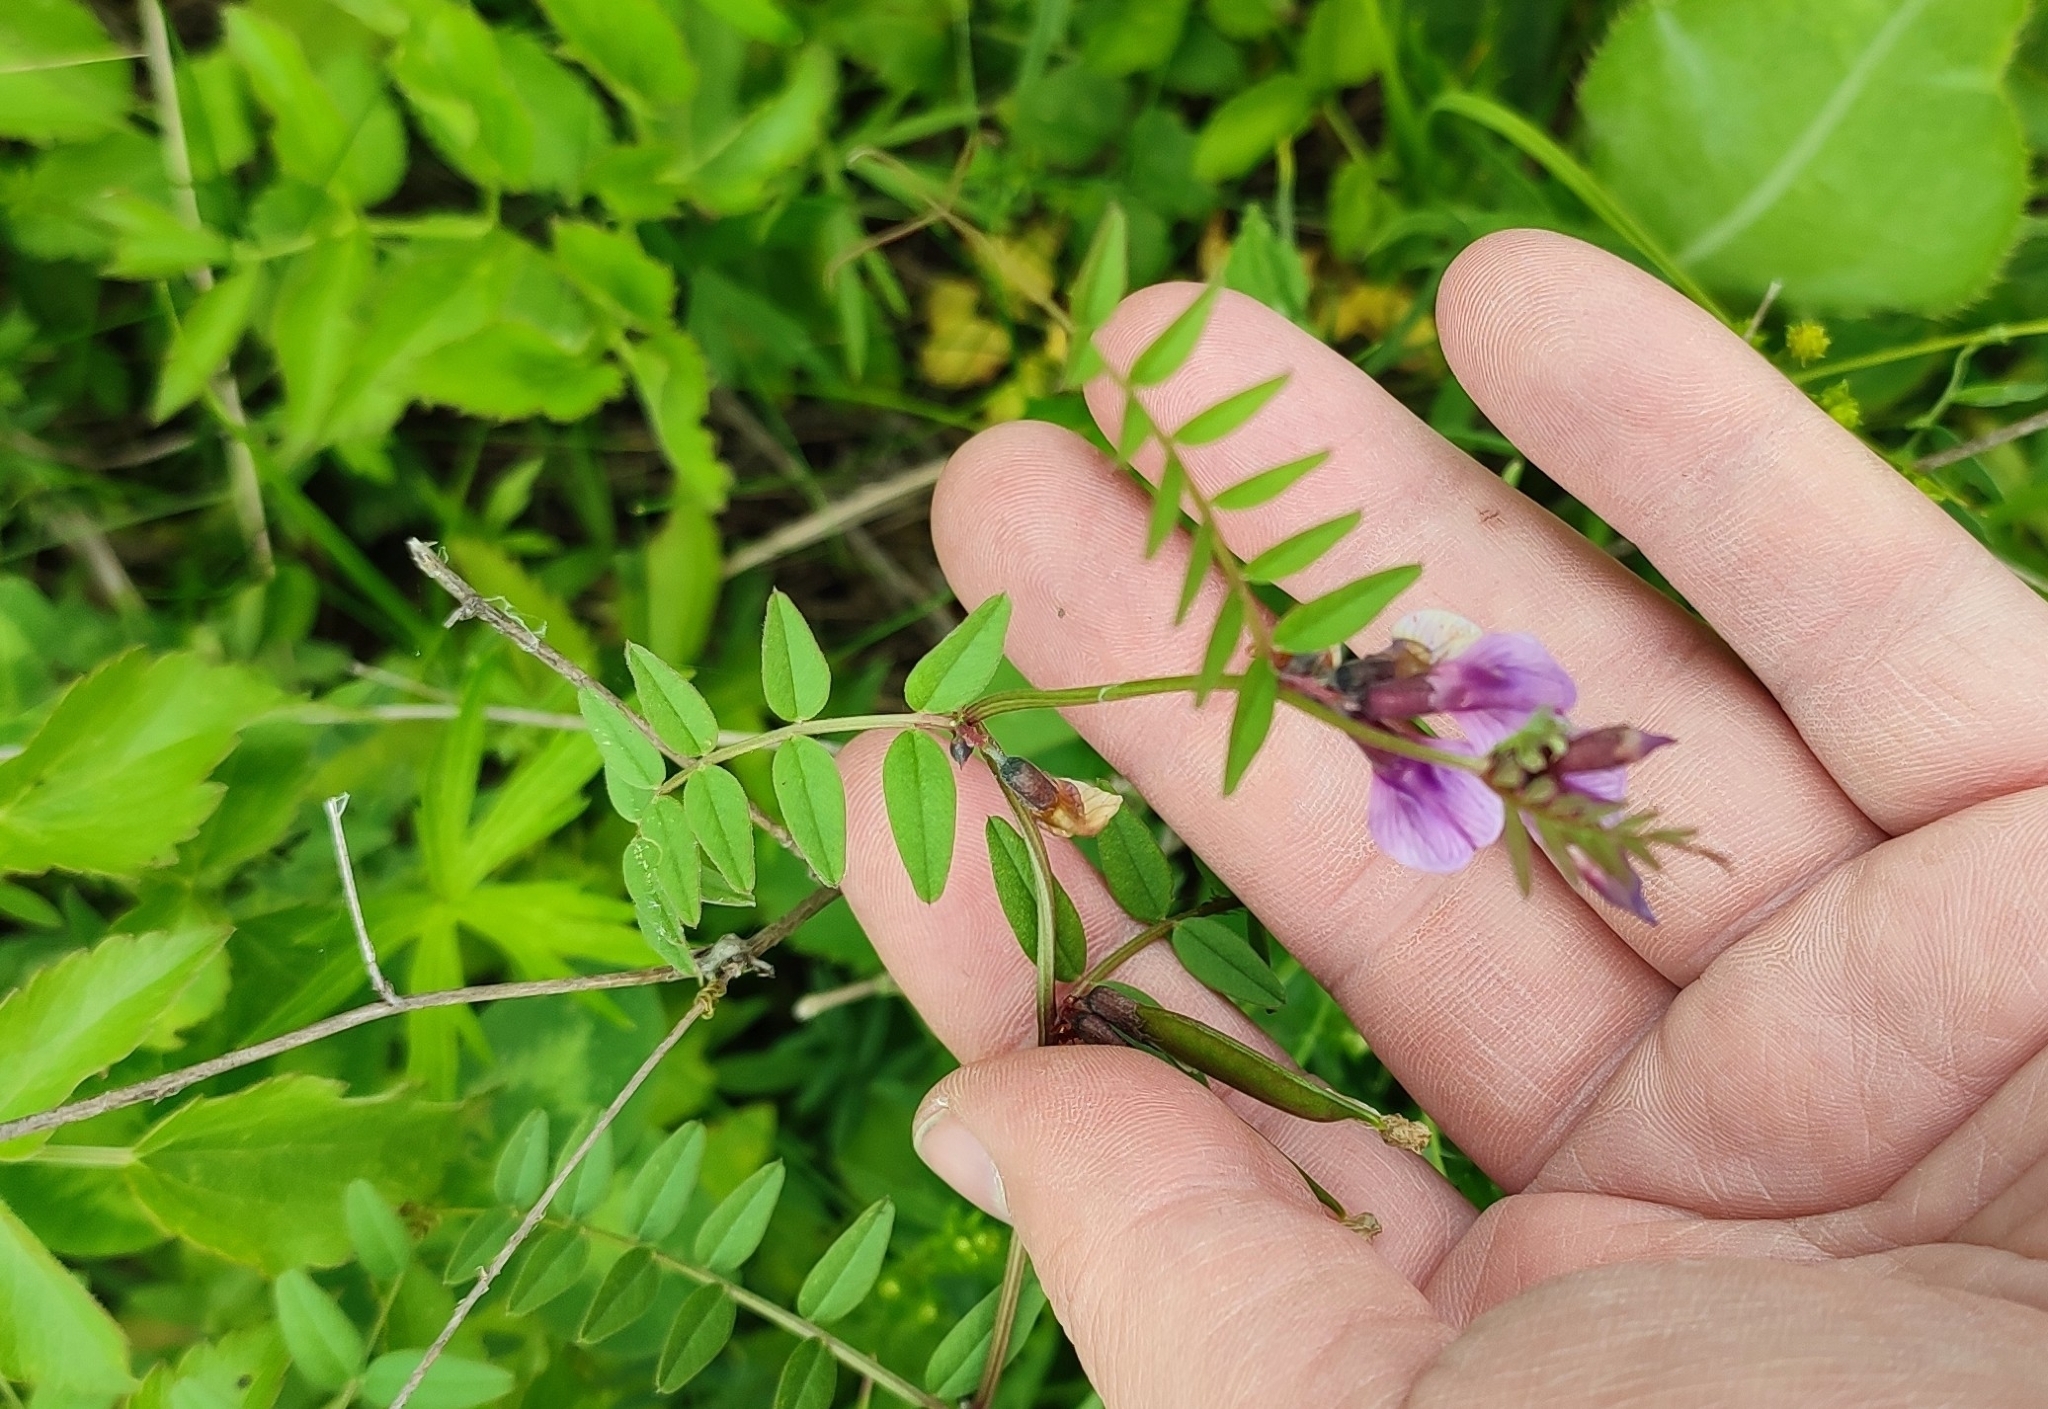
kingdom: Plantae
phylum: Tracheophyta
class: Magnoliopsida
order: Fabales
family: Fabaceae
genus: Vicia
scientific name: Vicia sepium
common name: Bush vetch
